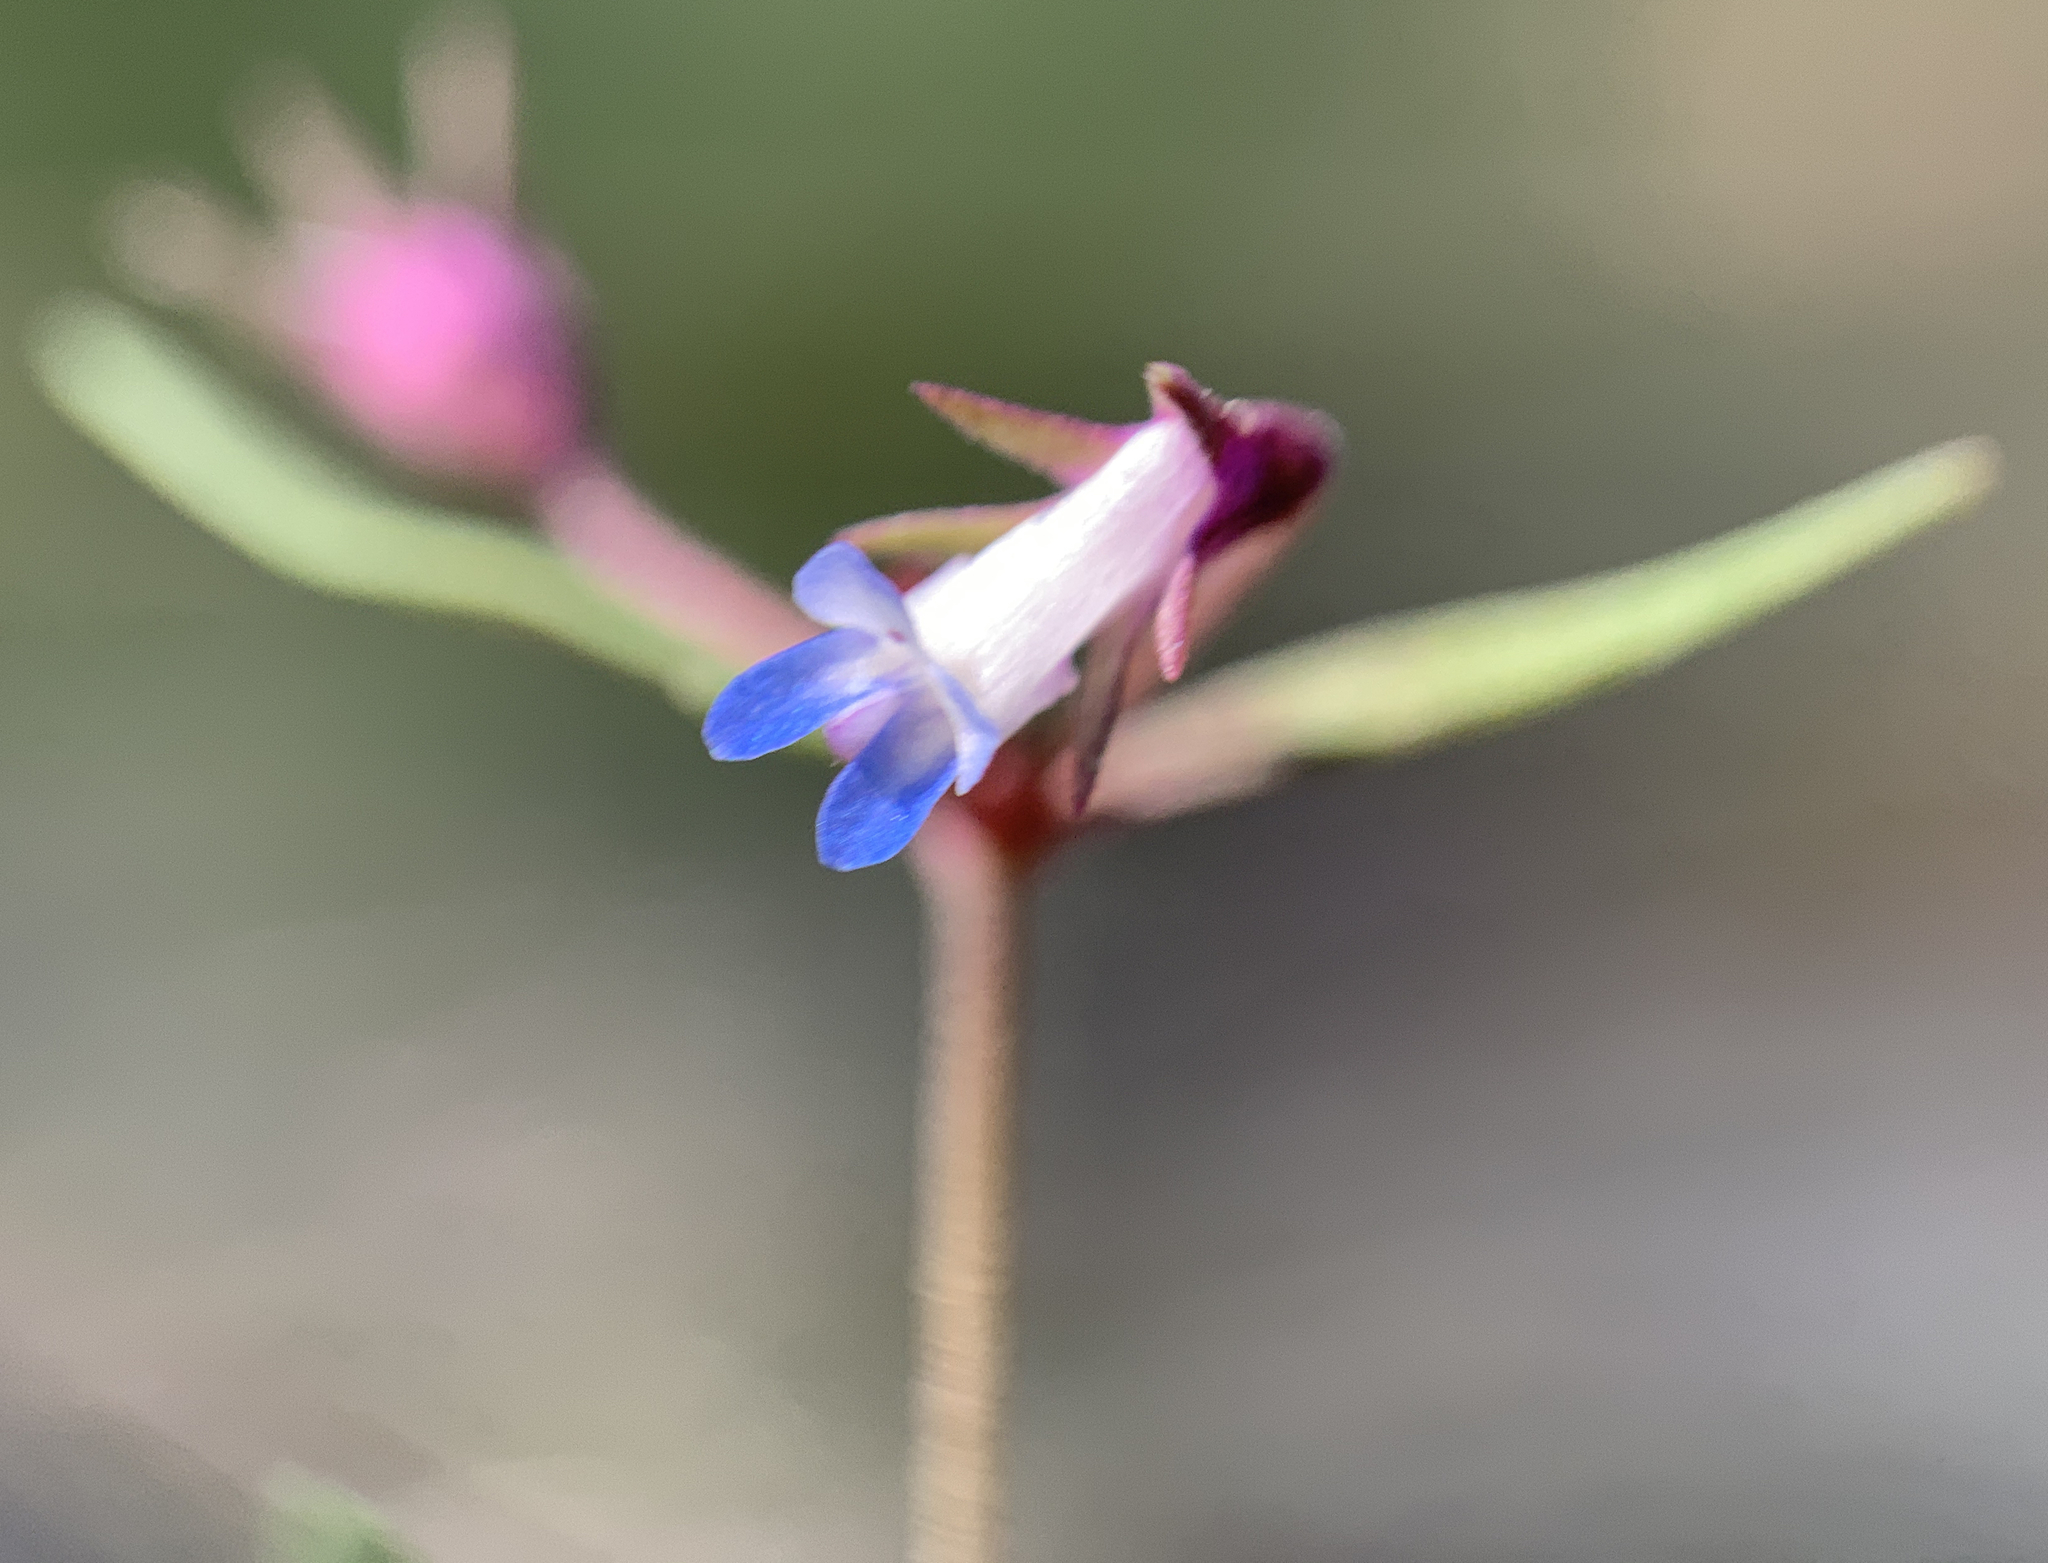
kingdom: Plantae
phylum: Tracheophyta
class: Magnoliopsida
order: Lamiales
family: Plantaginaceae
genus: Collinsia
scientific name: Collinsia parviflora
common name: Blue-lips
